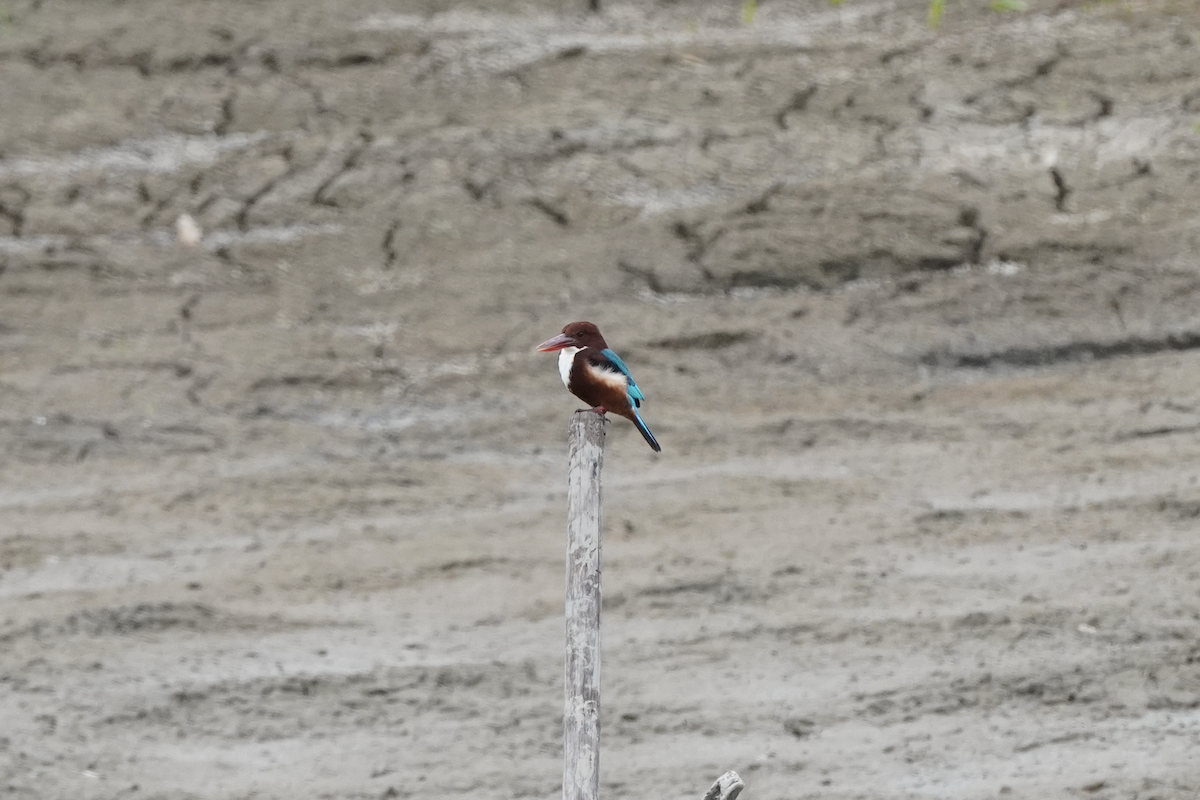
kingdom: Animalia
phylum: Chordata
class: Aves
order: Coraciiformes
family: Alcedinidae
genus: Halcyon
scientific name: Halcyon smyrnensis
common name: White-throated kingfisher
